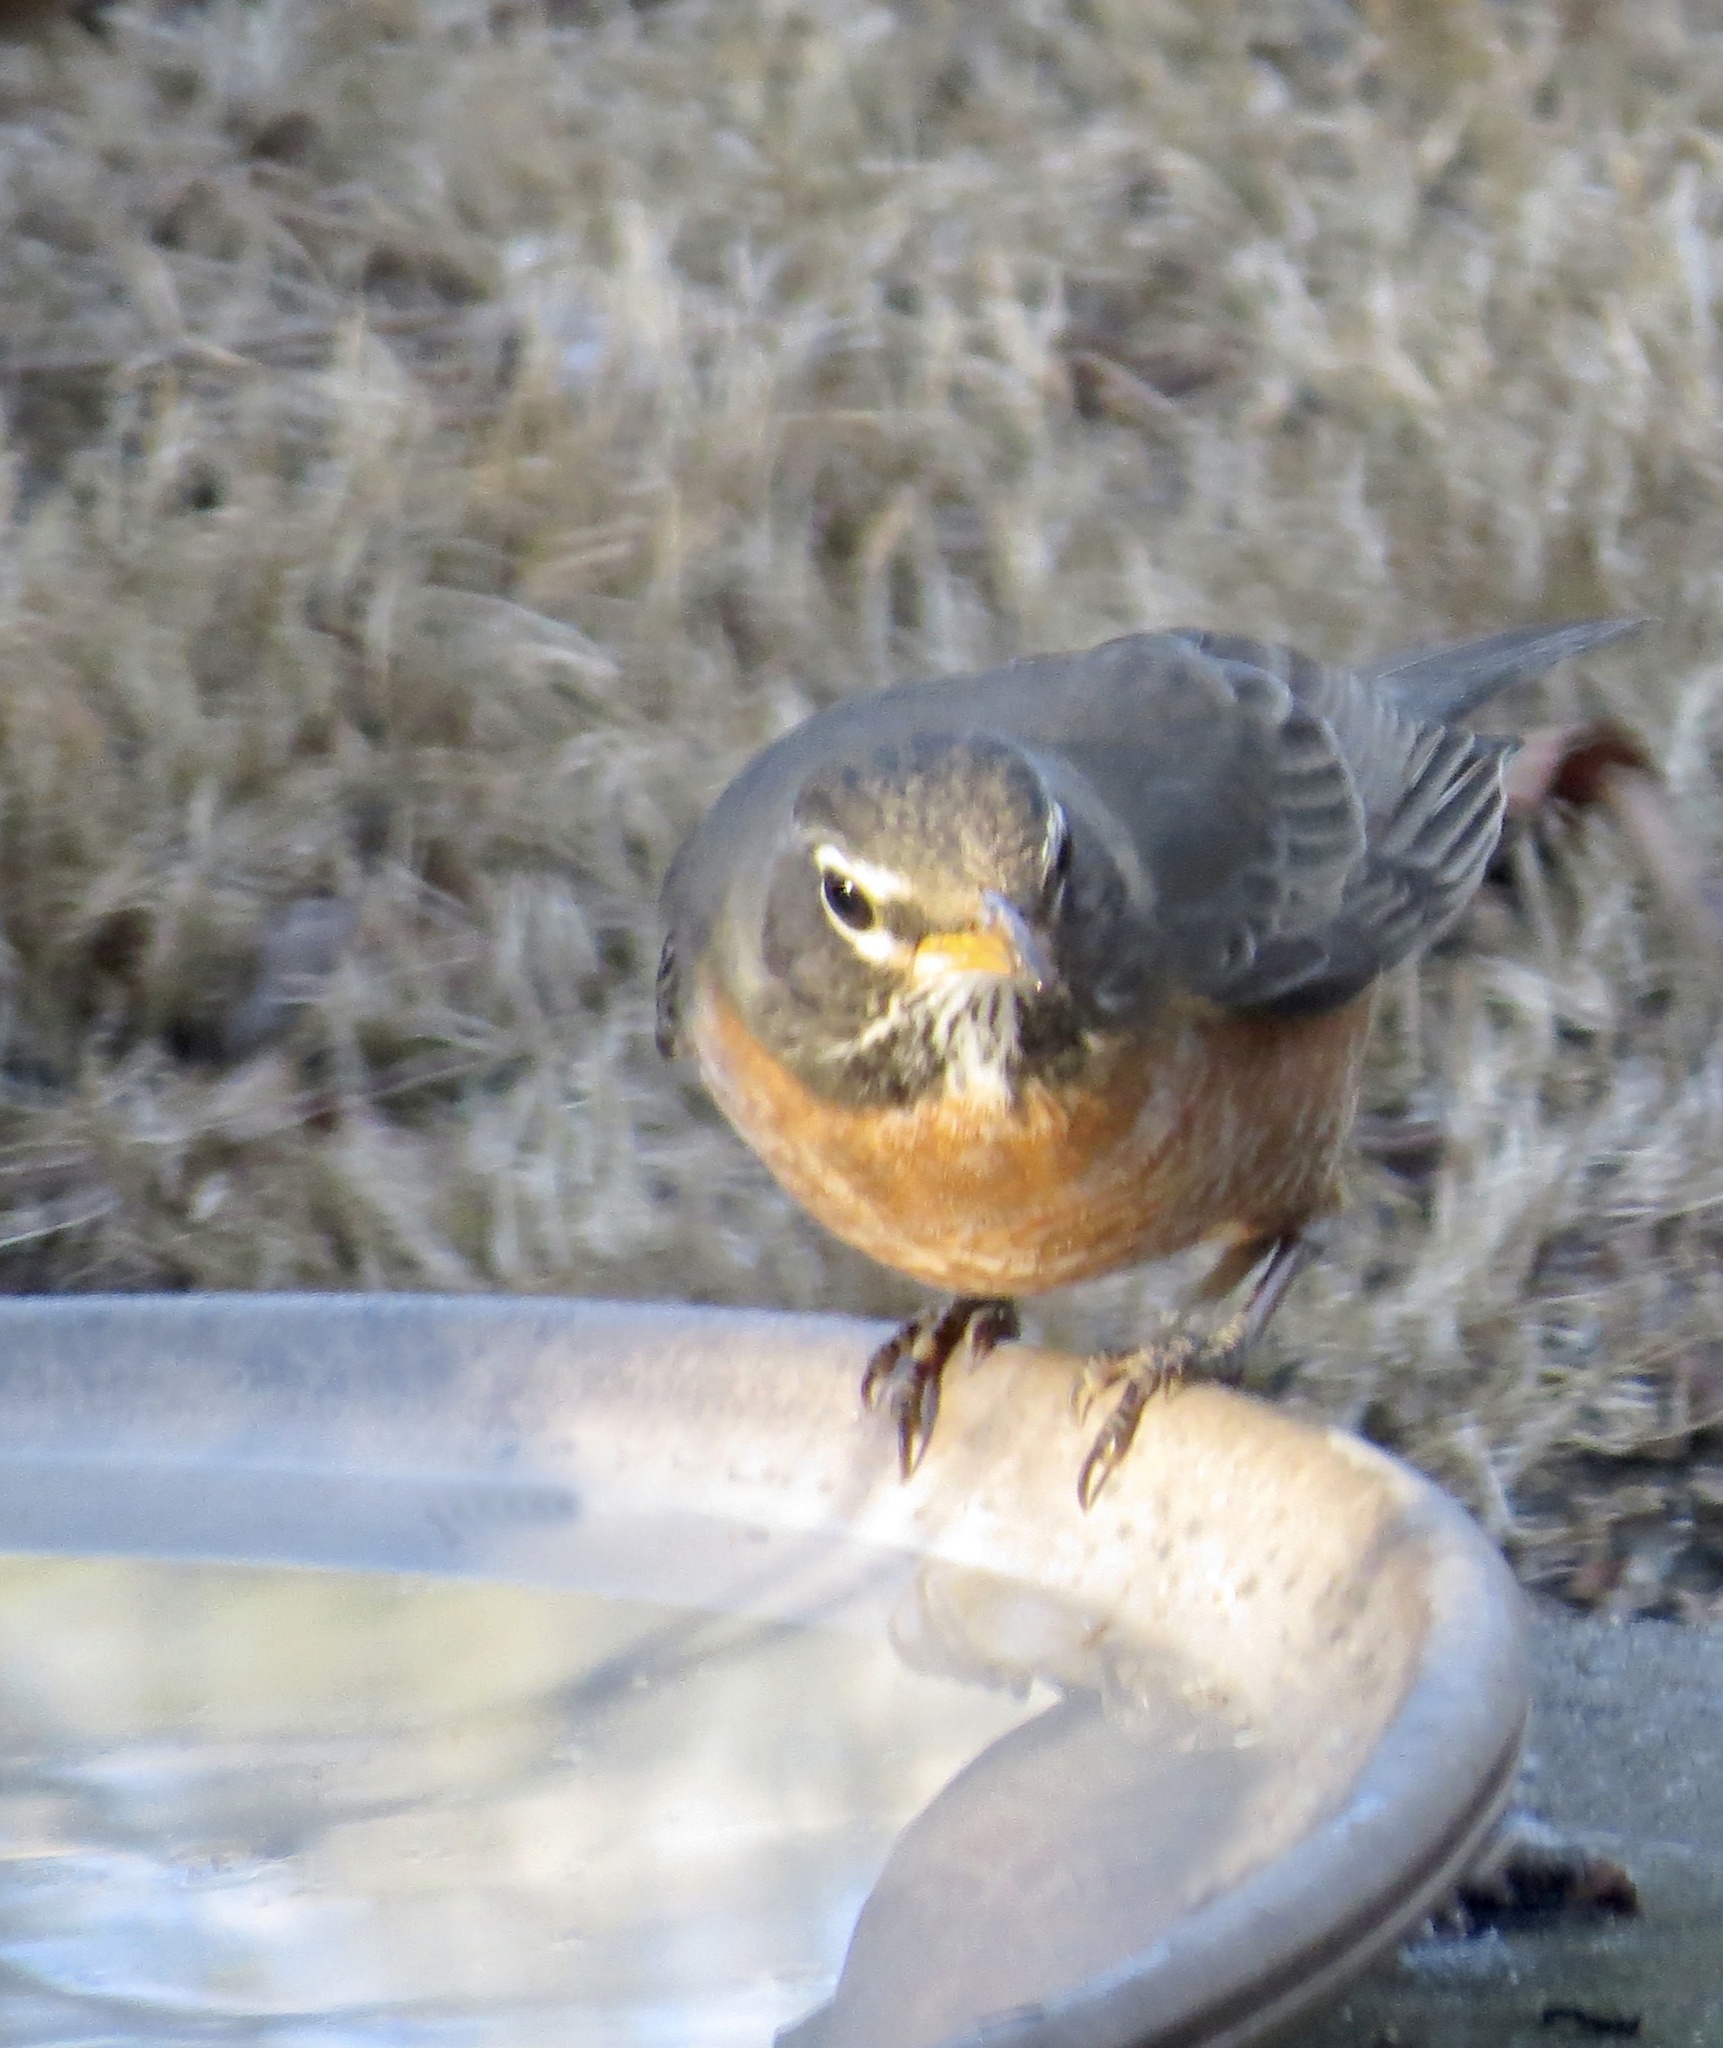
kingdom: Animalia
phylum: Chordata
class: Aves
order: Passeriformes
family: Turdidae
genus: Turdus
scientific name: Turdus migratorius
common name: American robin
